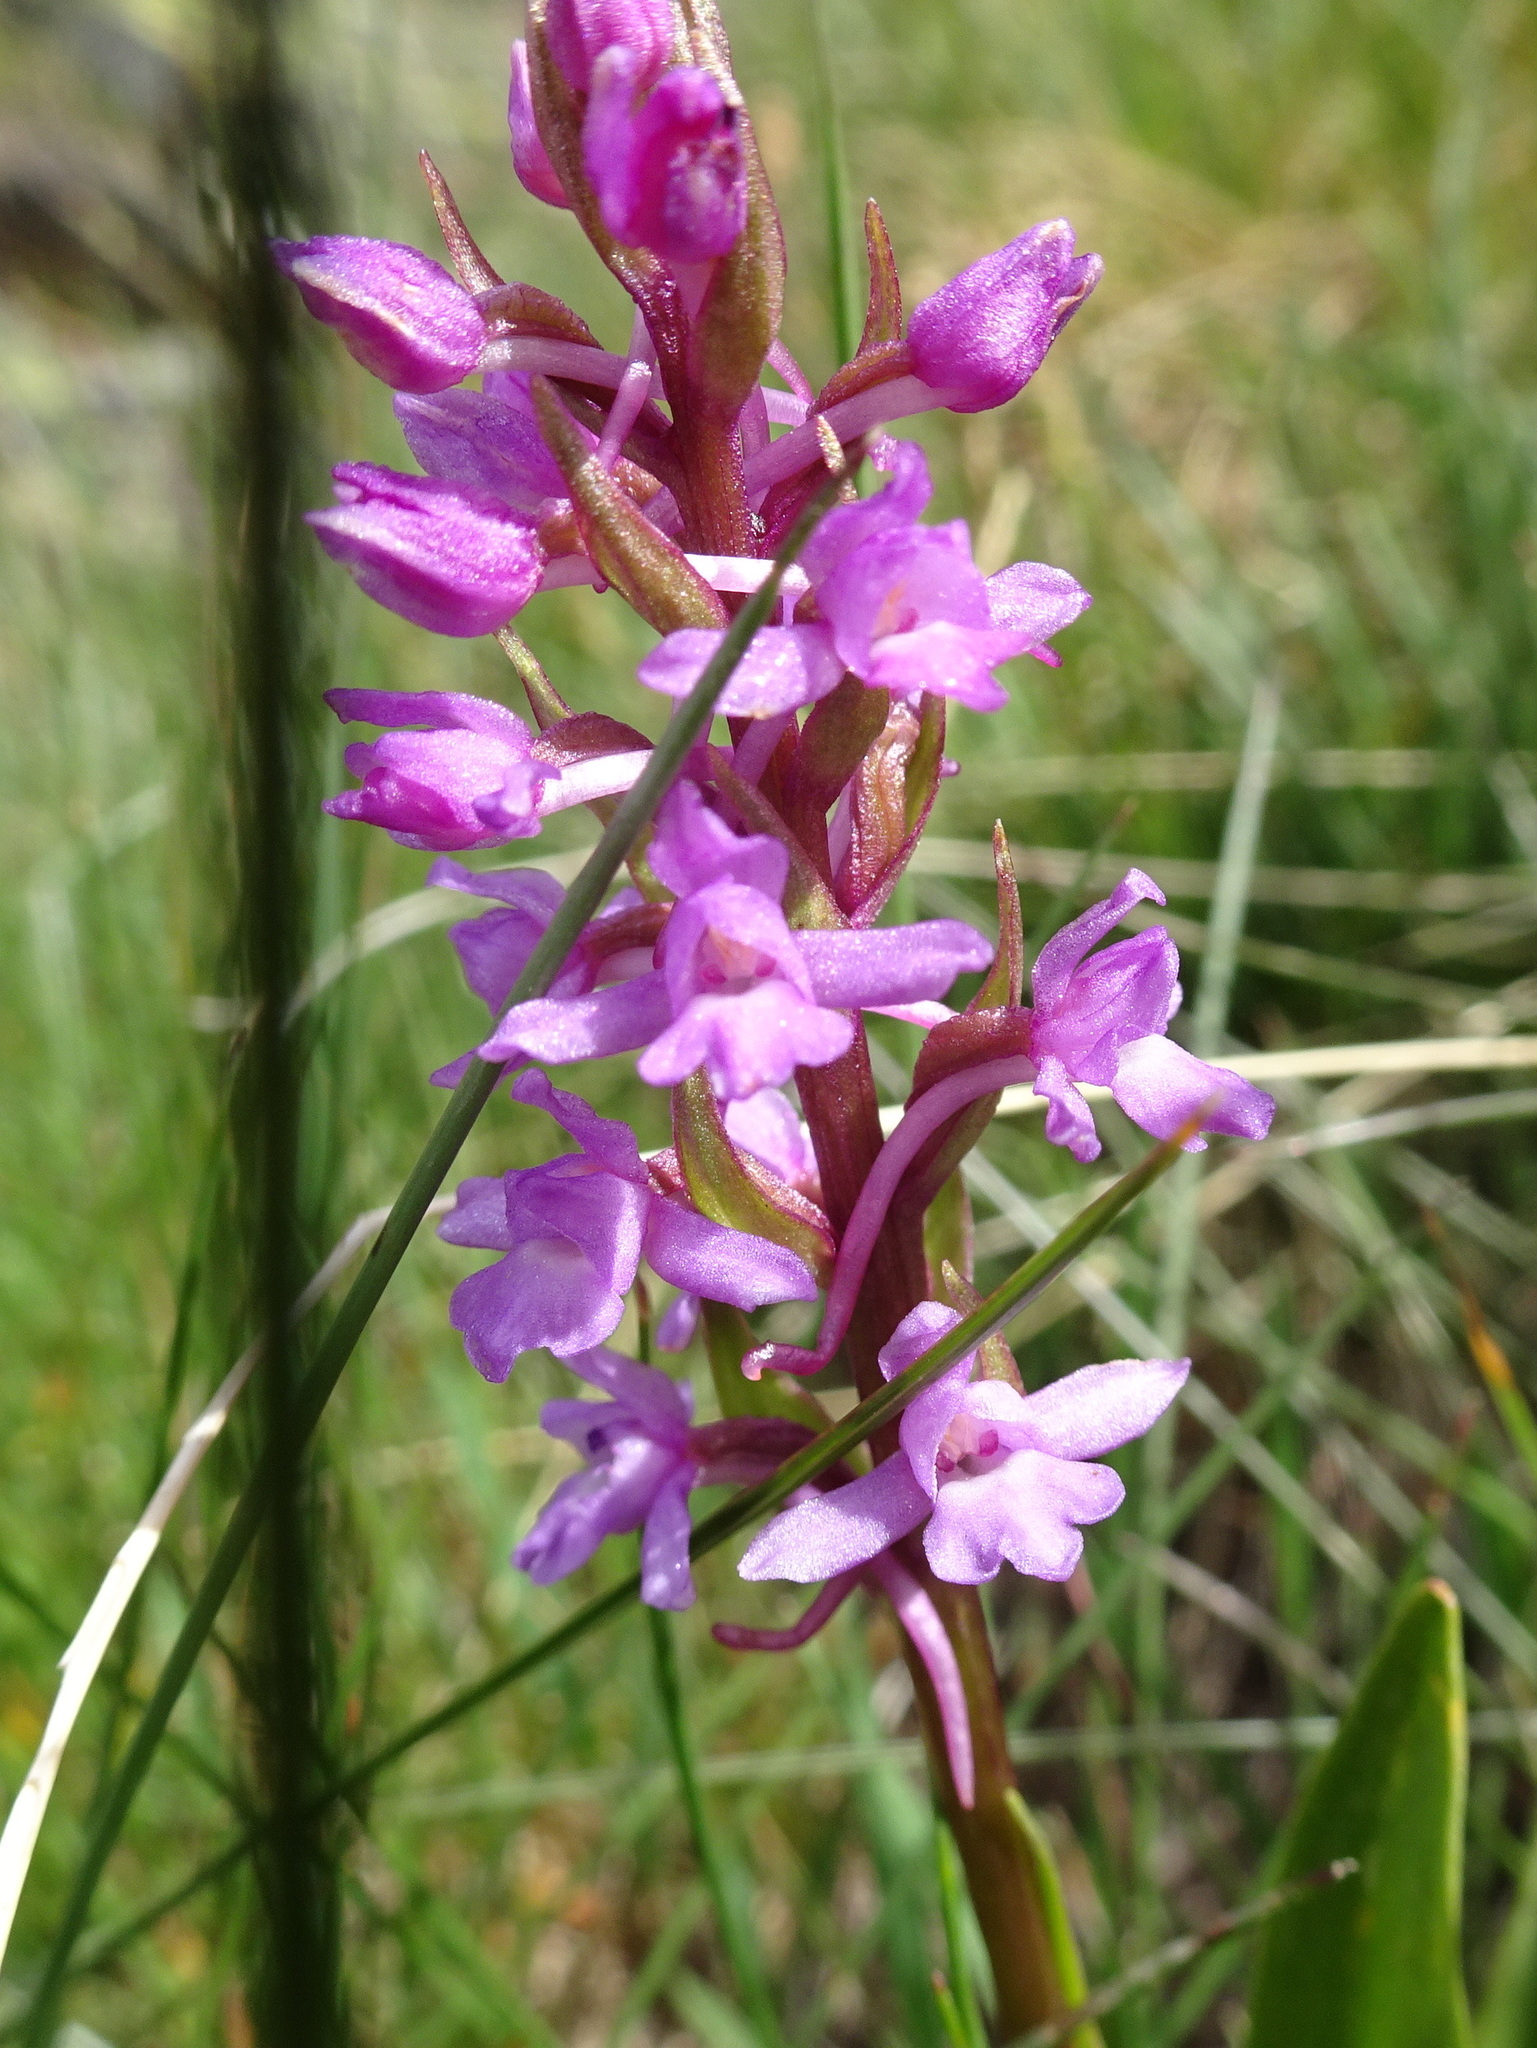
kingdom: Plantae
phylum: Tracheophyta
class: Liliopsida
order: Asparagales
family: Orchidaceae
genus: Gymnadenia
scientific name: Gymnadenia conopsea
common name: Fragrant orchid
